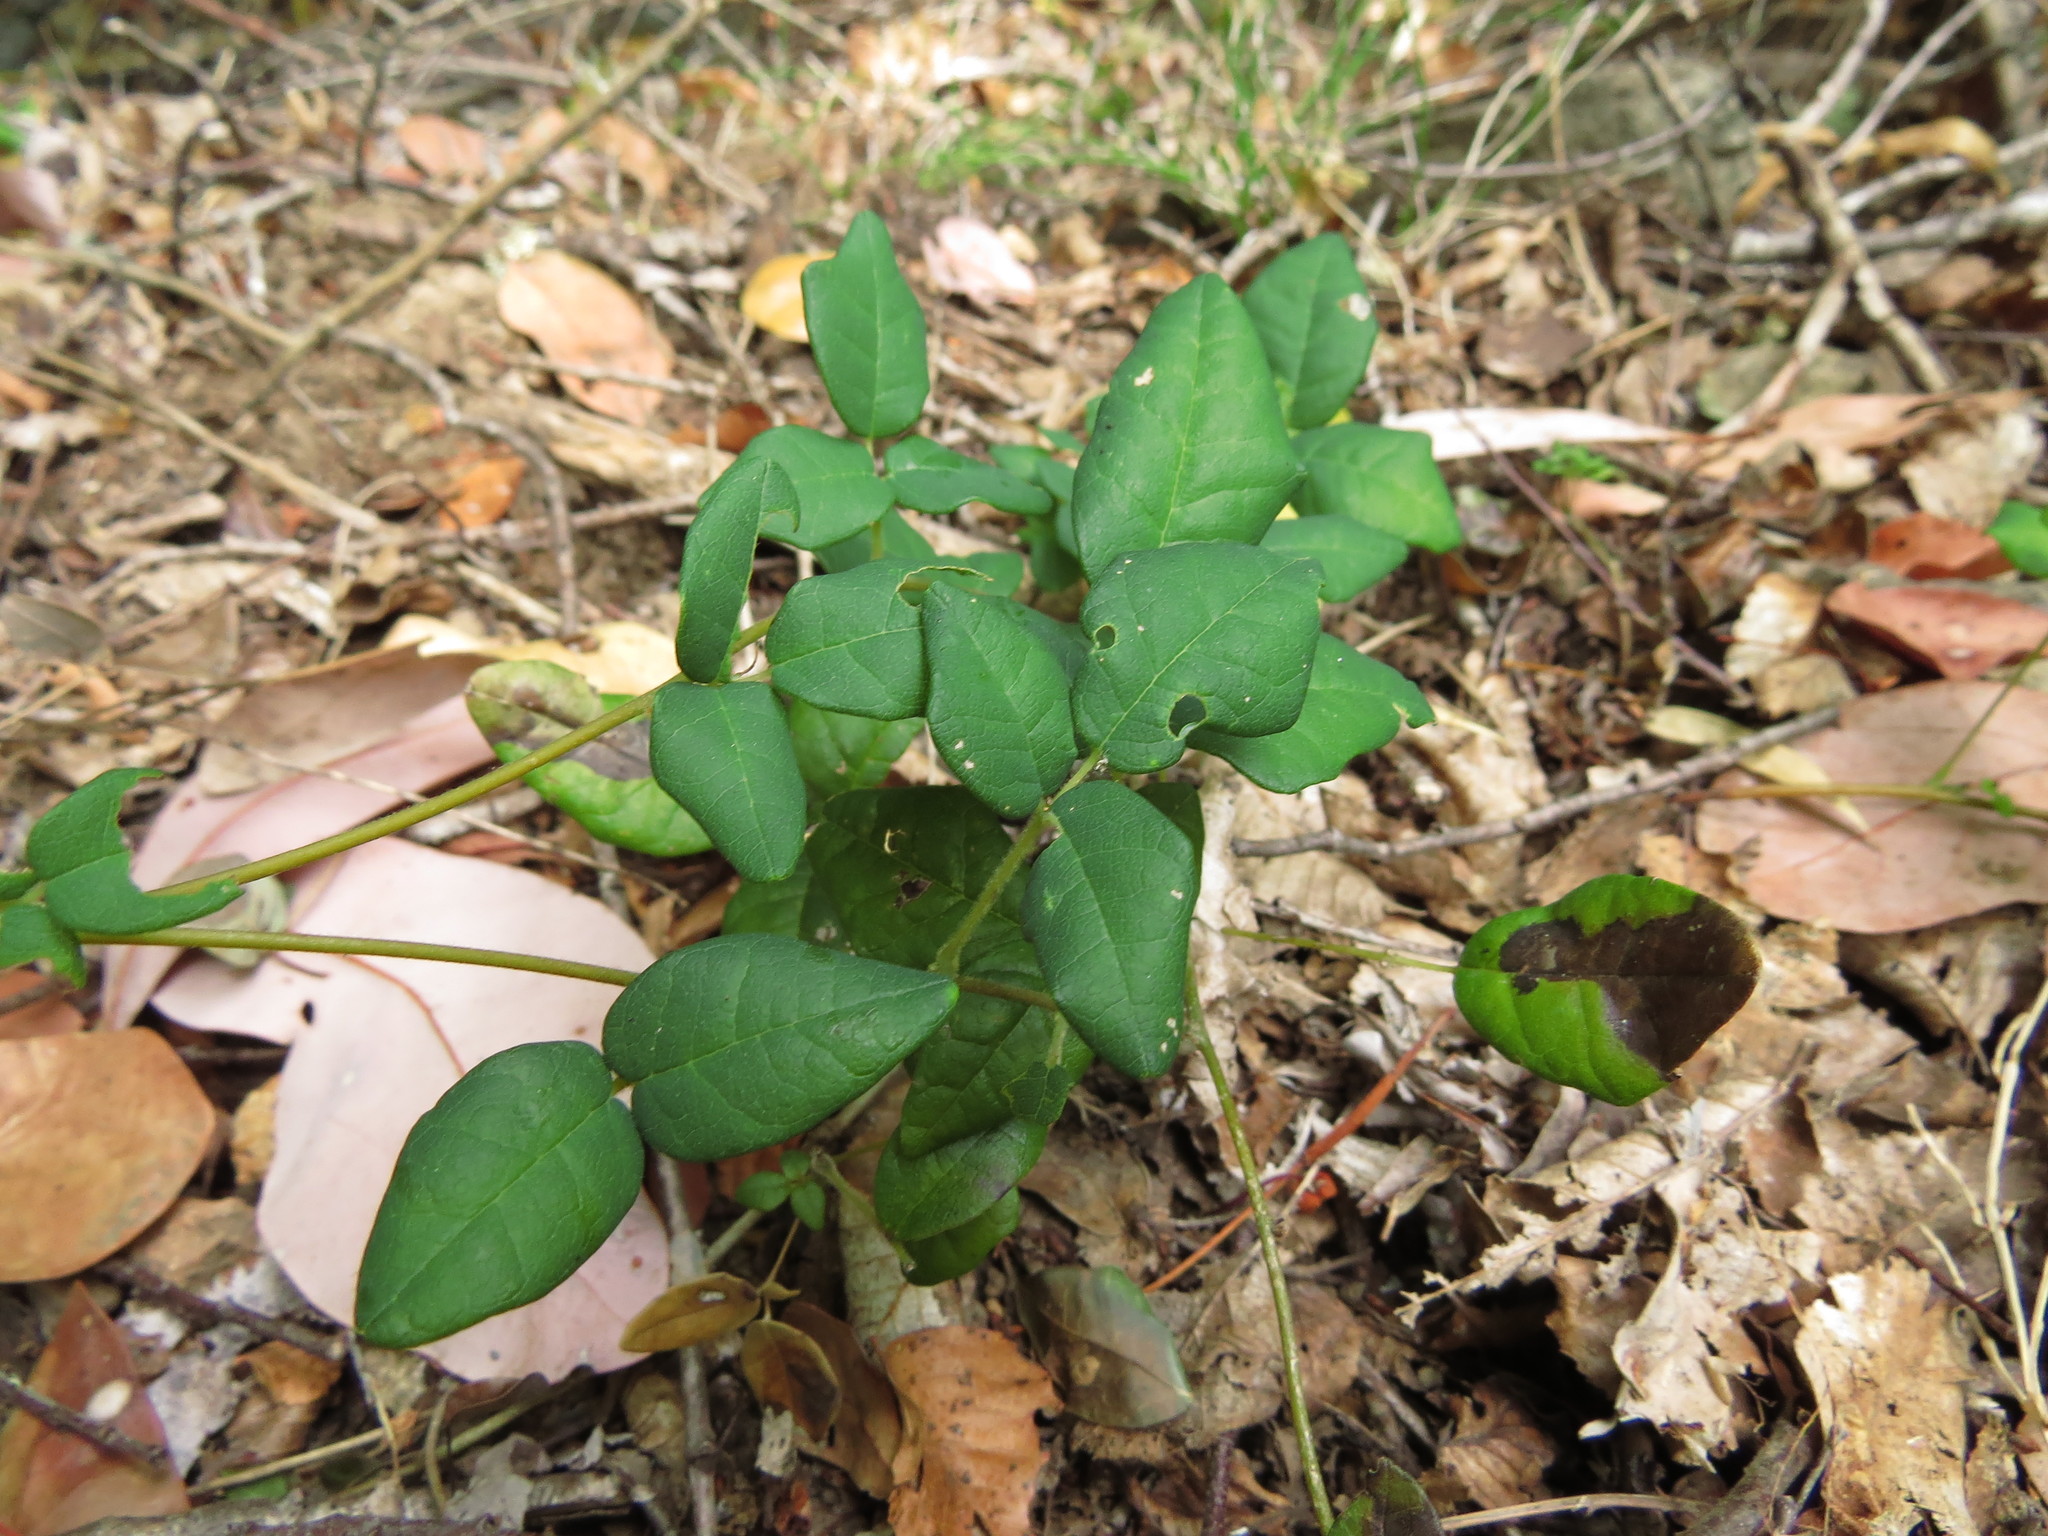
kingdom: Plantae
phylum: Tracheophyta
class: Magnoliopsida
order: Ranunculales
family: Lardizabalaceae
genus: Boquila
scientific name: Boquila trifoliolata
